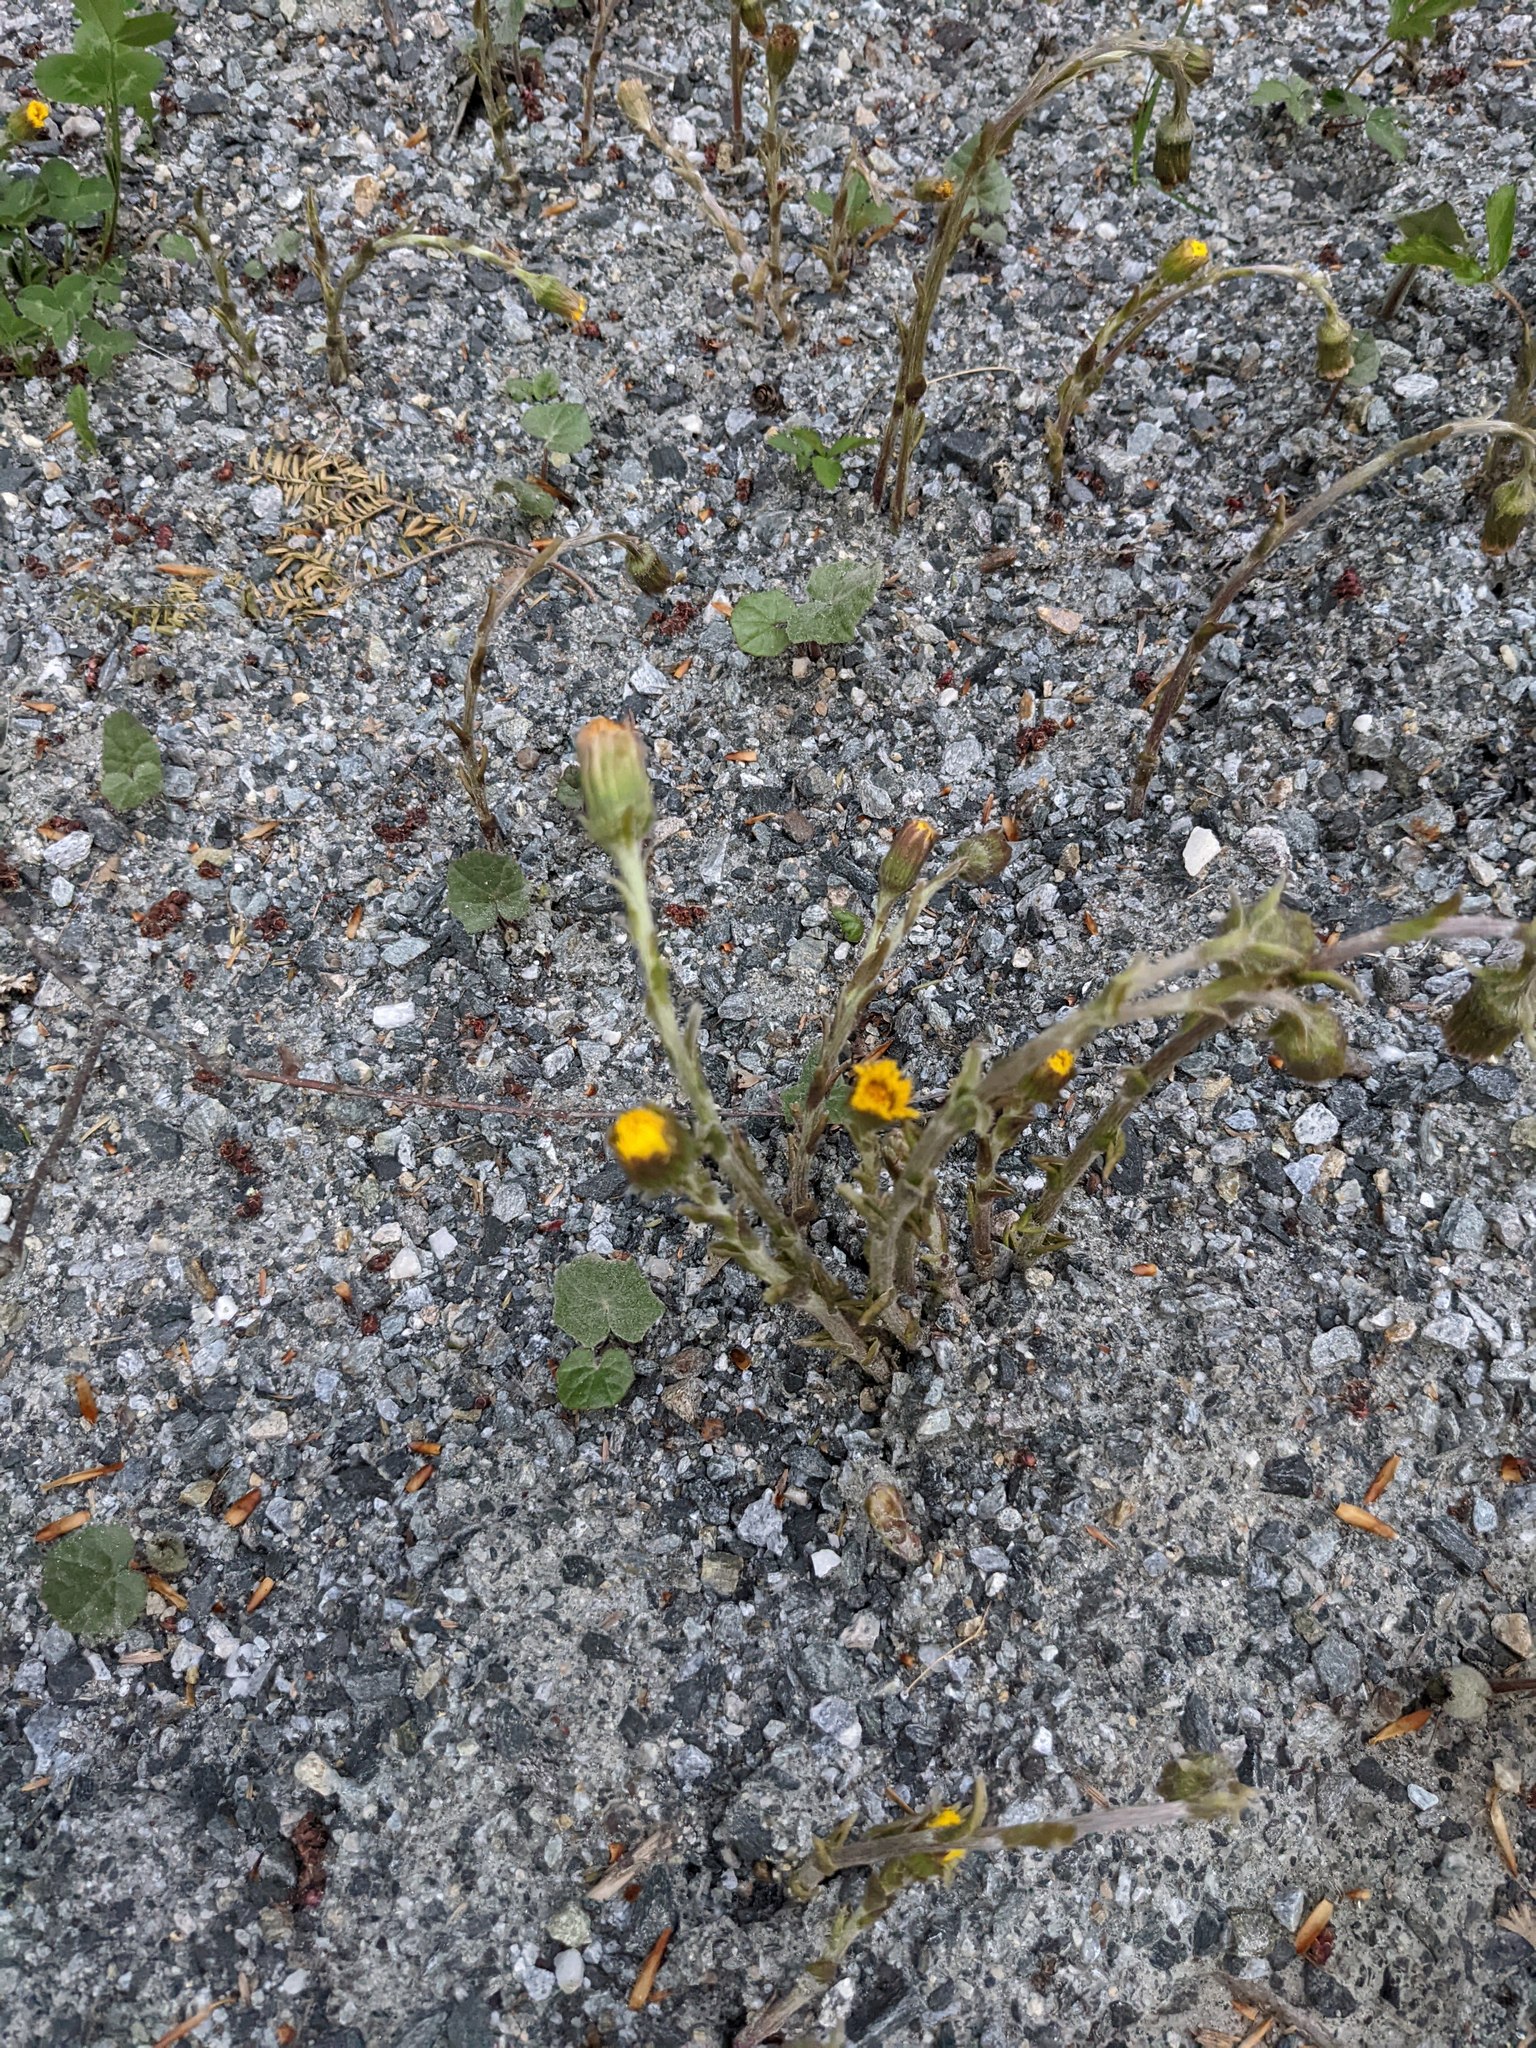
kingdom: Plantae
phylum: Tracheophyta
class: Magnoliopsida
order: Asterales
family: Asteraceae
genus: Tussilago
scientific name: Tussilago farfara
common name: Coltsfoot
